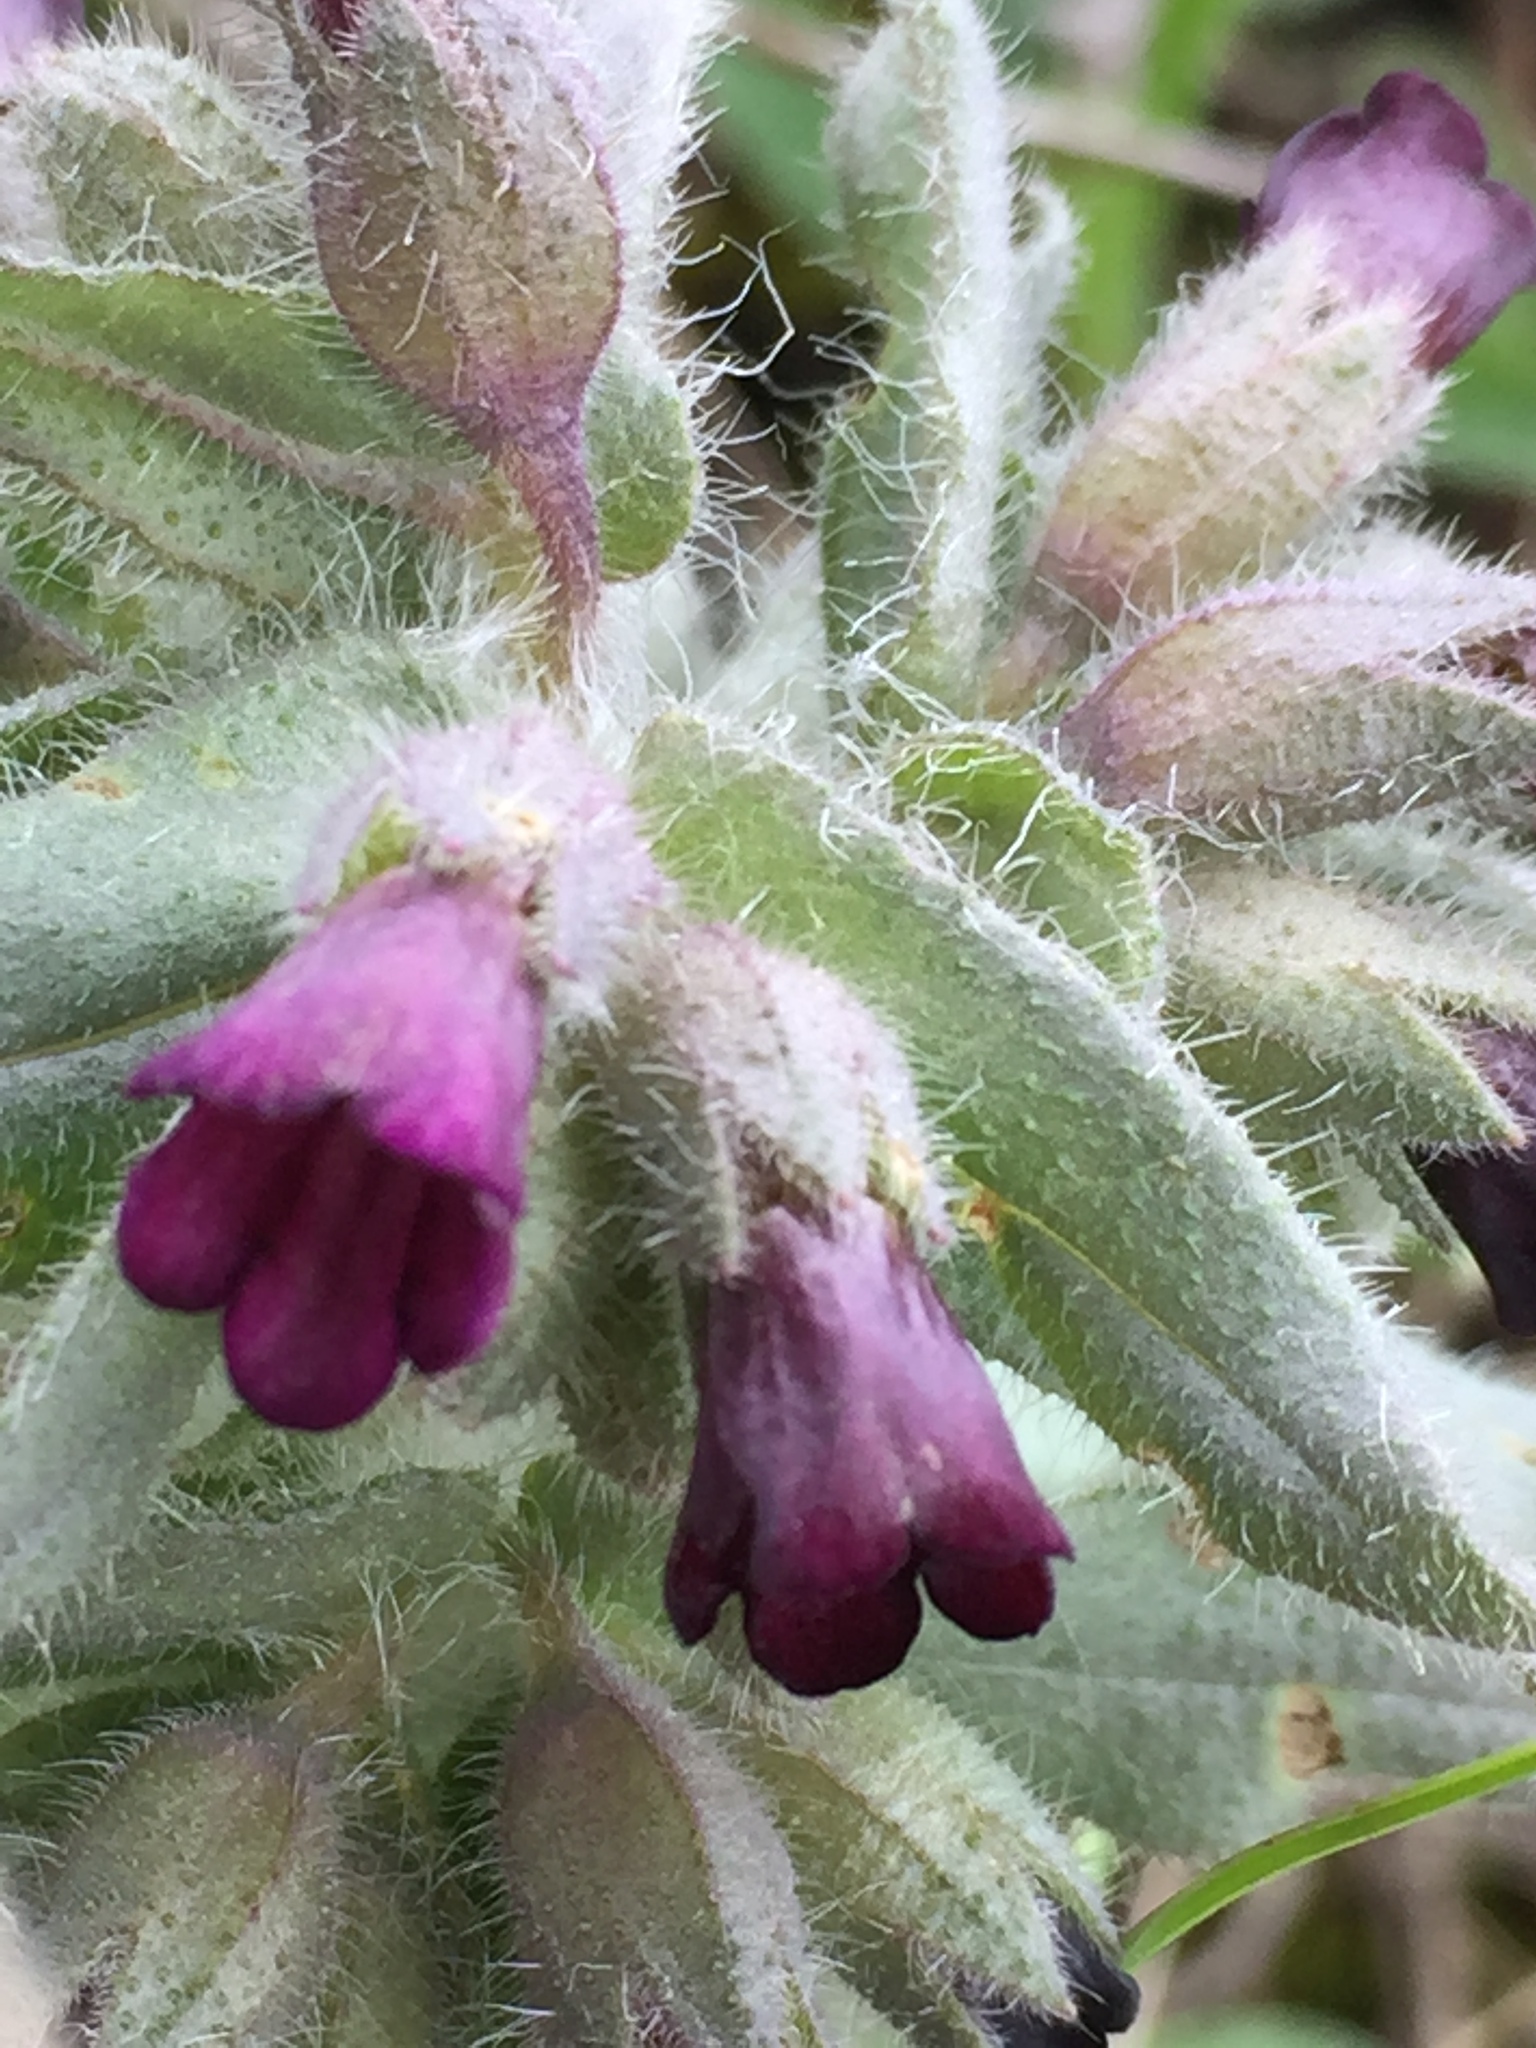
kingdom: Plantae
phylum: Tracheophyta
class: Magnoliopsida
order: Boraginales
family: Boraginaceae
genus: Nonea
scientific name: Nonea pulla
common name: Brown nonea
